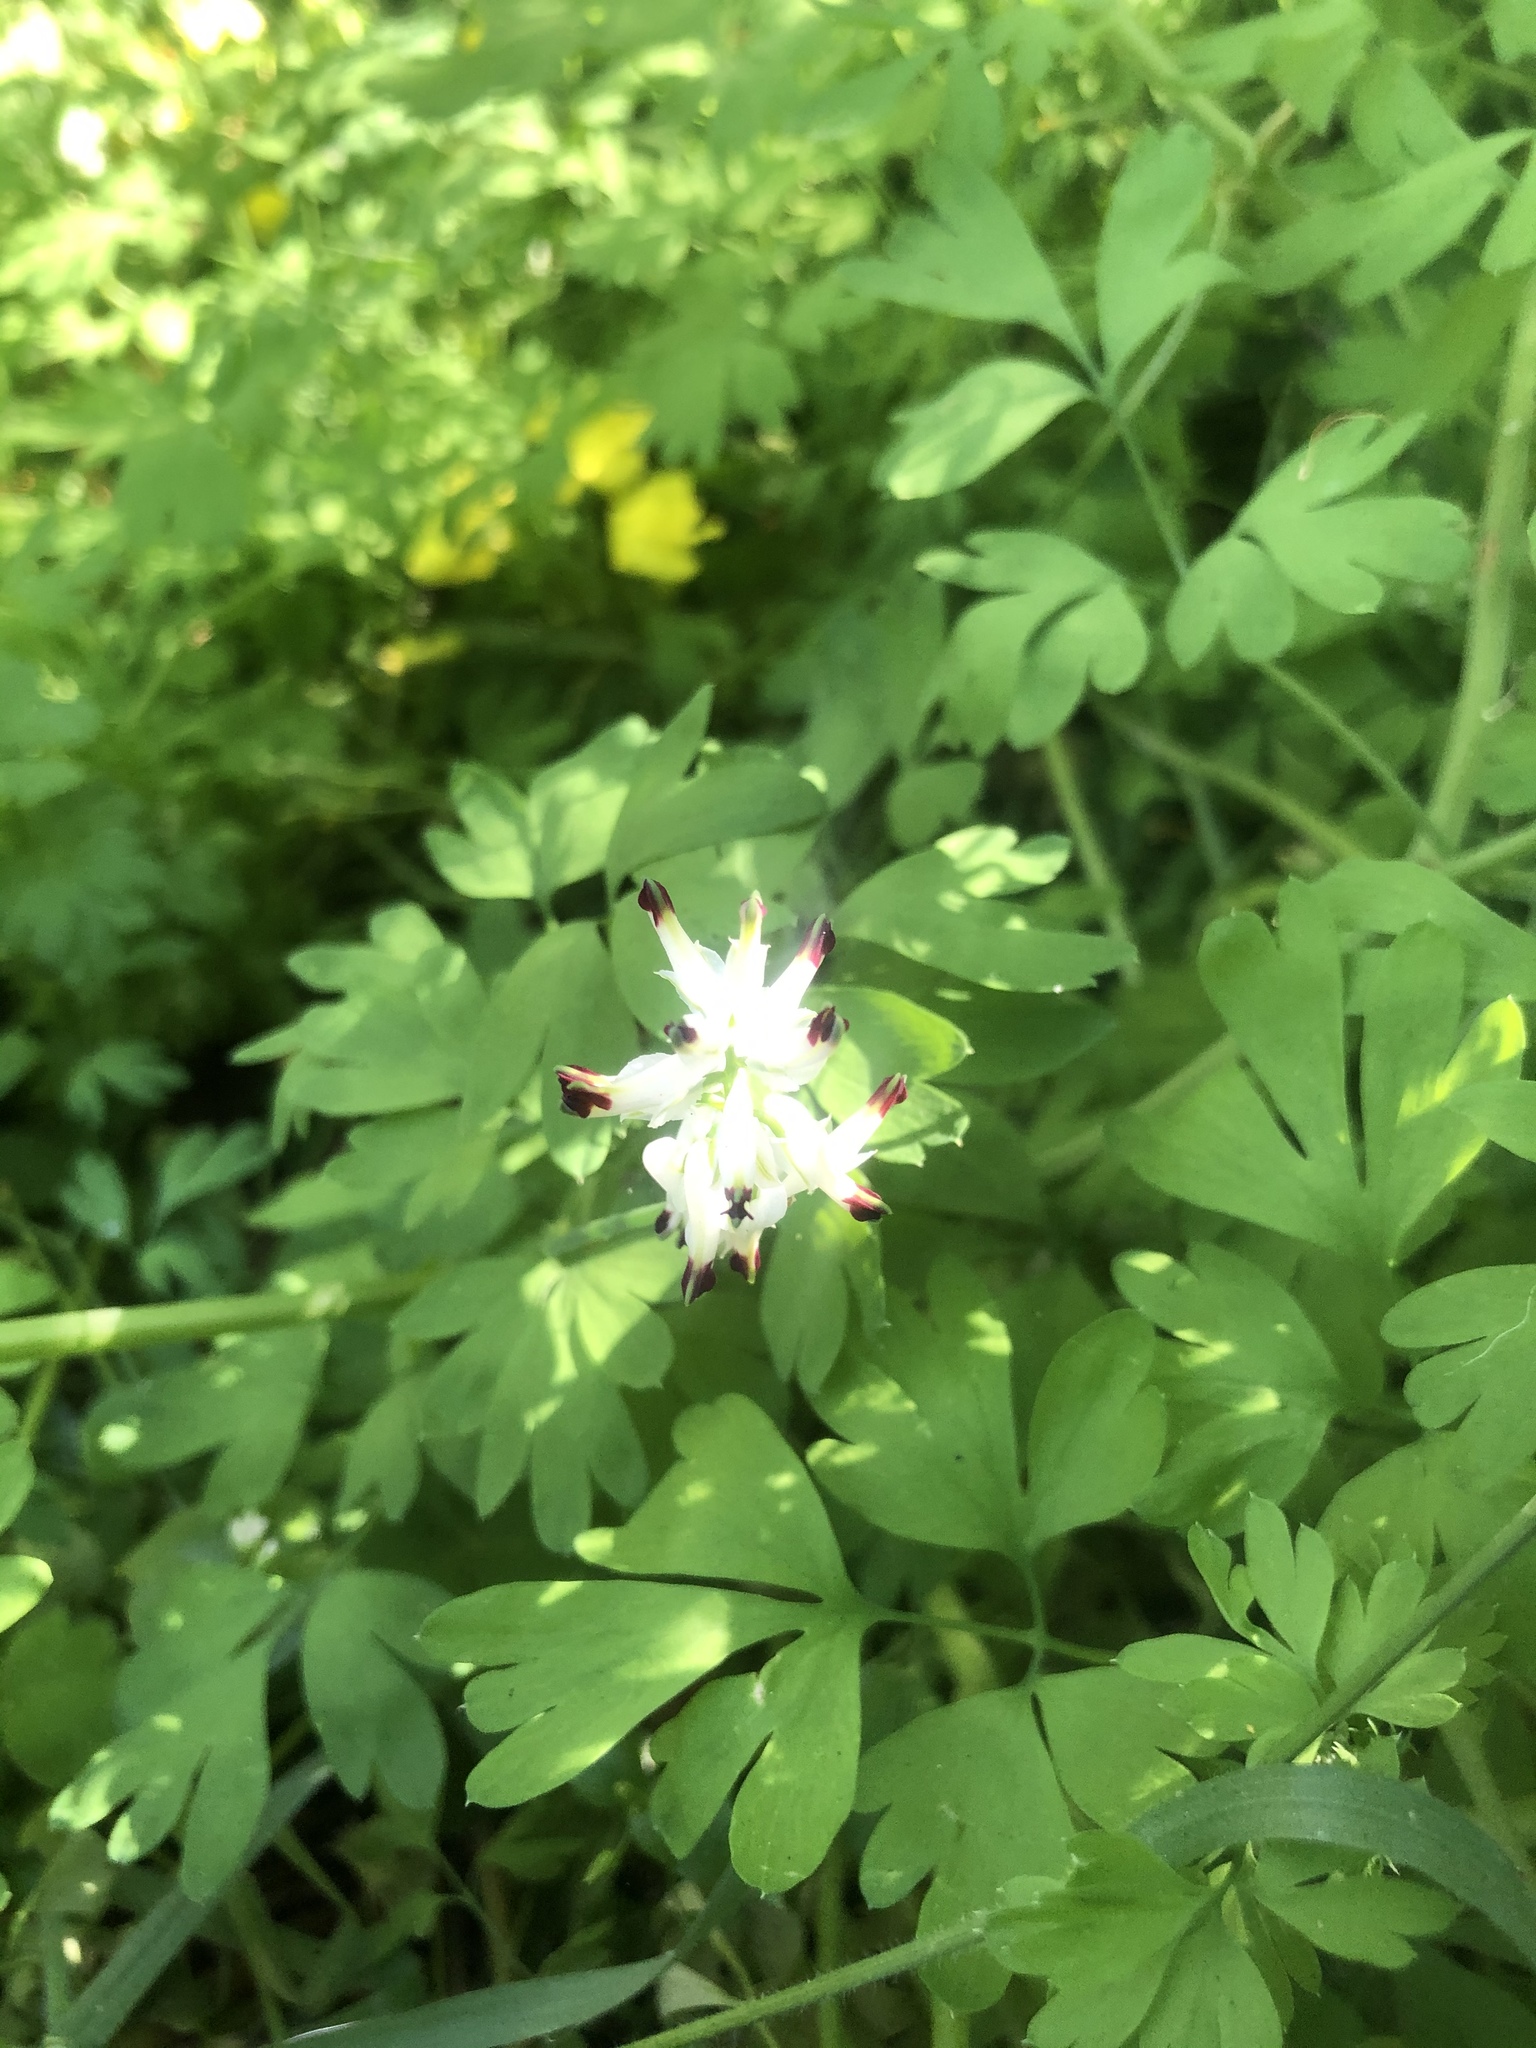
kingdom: Plantae
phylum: Tracheophyta
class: Magnoliopsida
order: Ranunculales
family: Papaveraceae
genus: Fumaria
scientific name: Fumaria capreolata
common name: White ramping-fumitory
